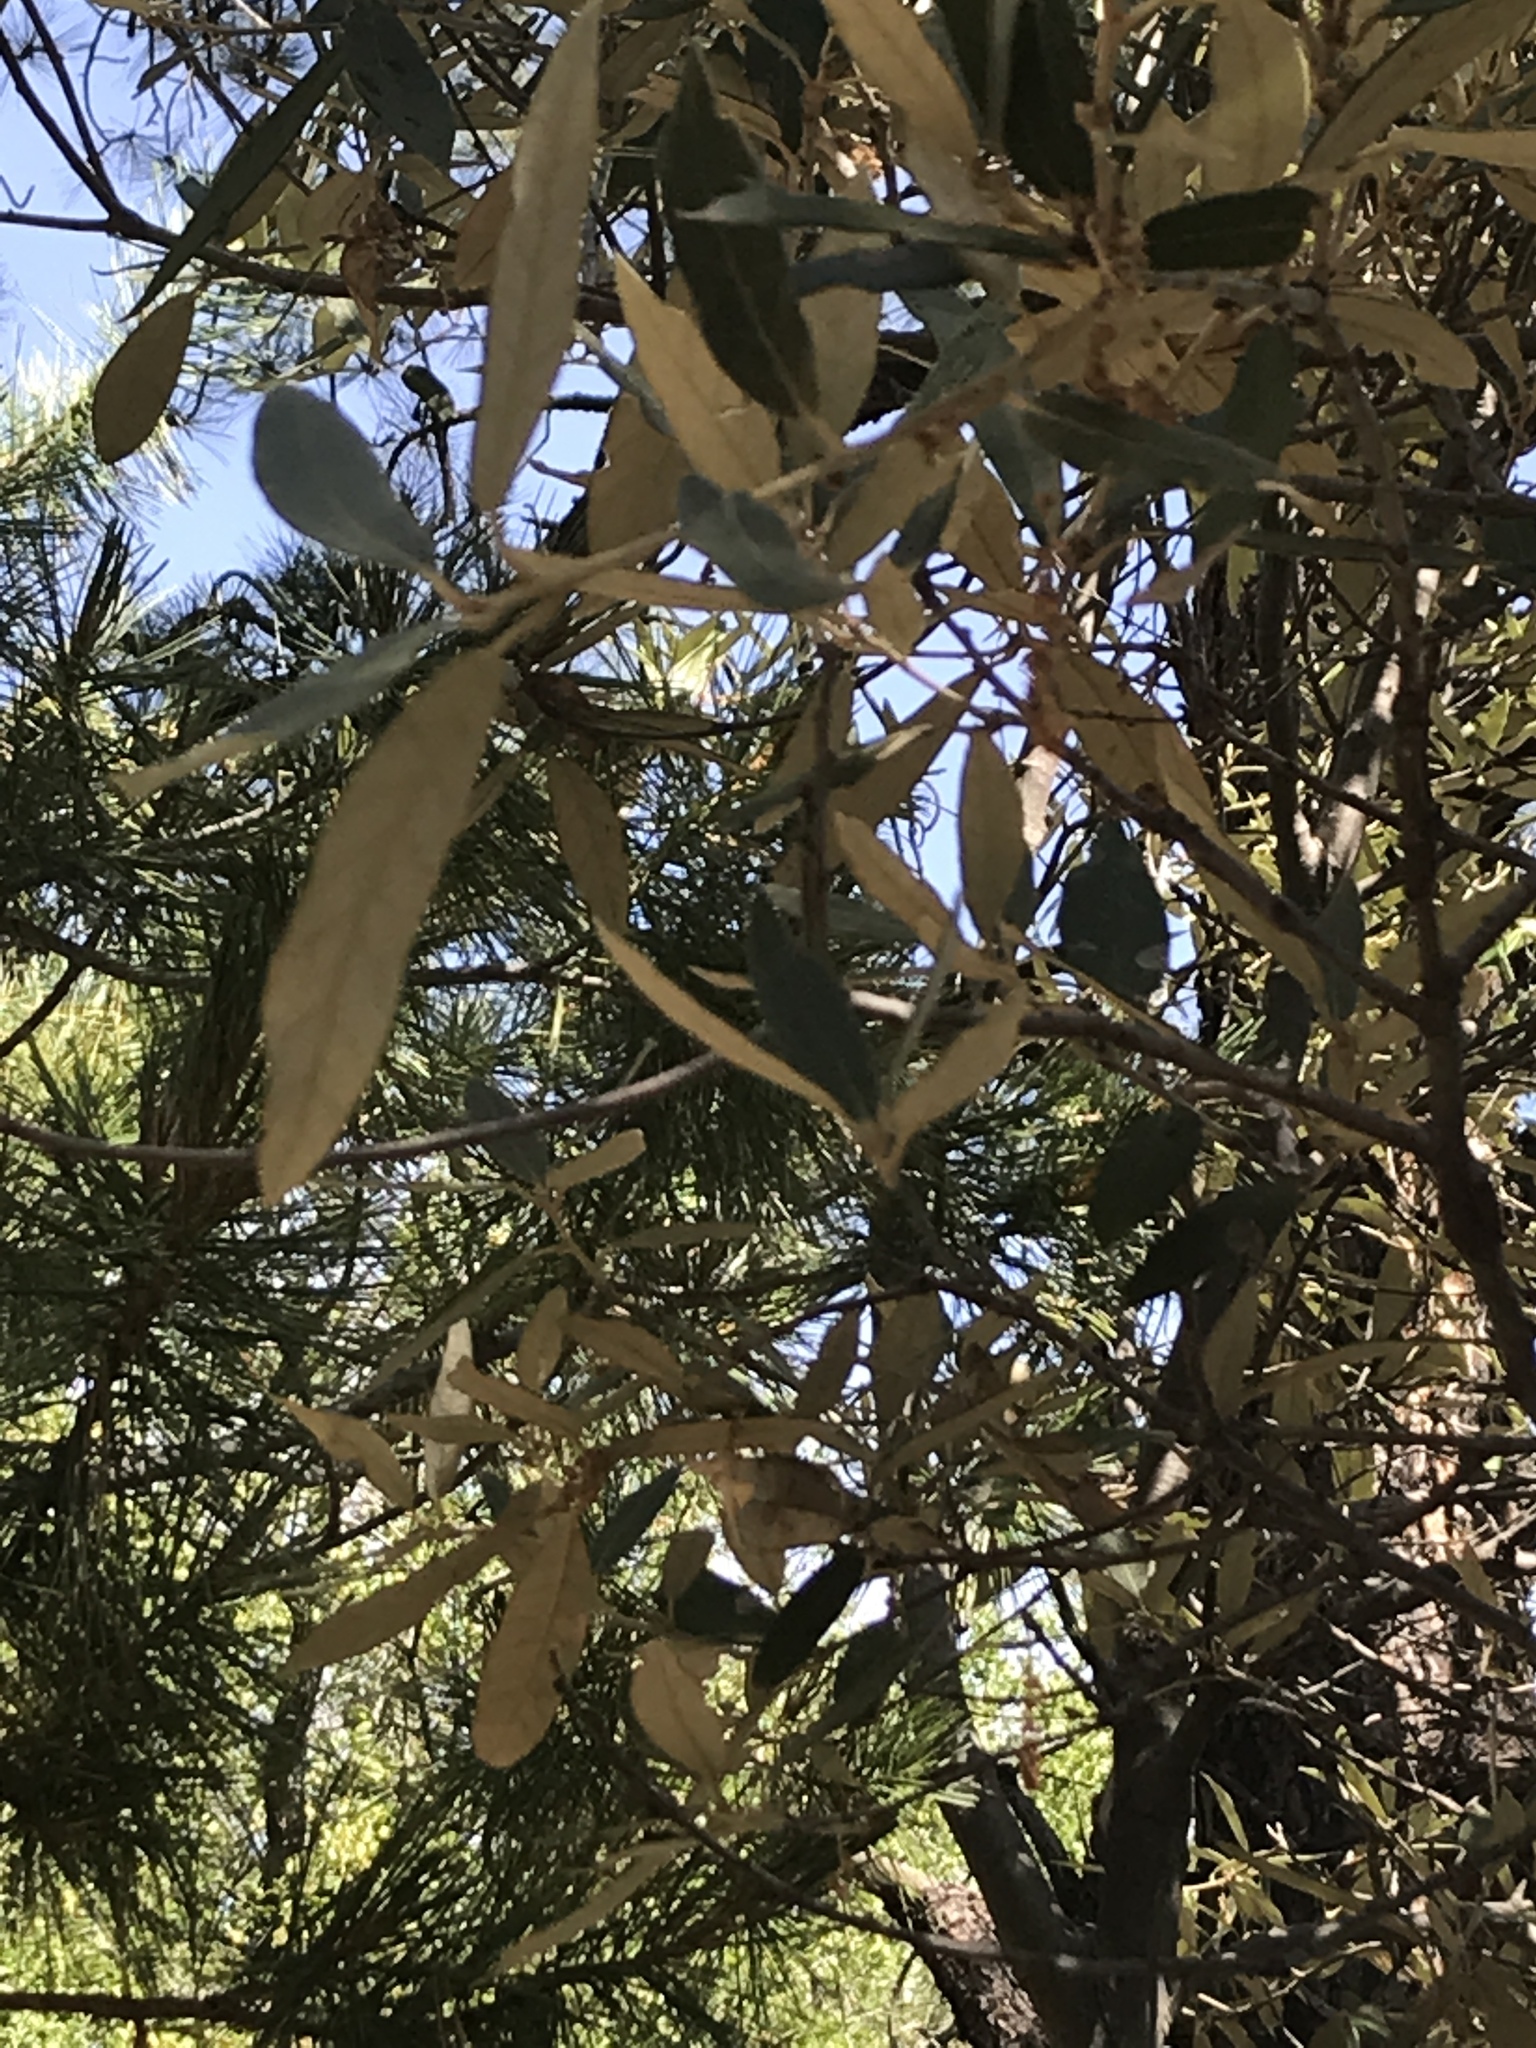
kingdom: Plantae
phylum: Tracheophyta
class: Magnoliopsida
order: Fagales
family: Fagaceae
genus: Quercus
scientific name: Quercus hypoleucoides
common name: Silverleaf oak
